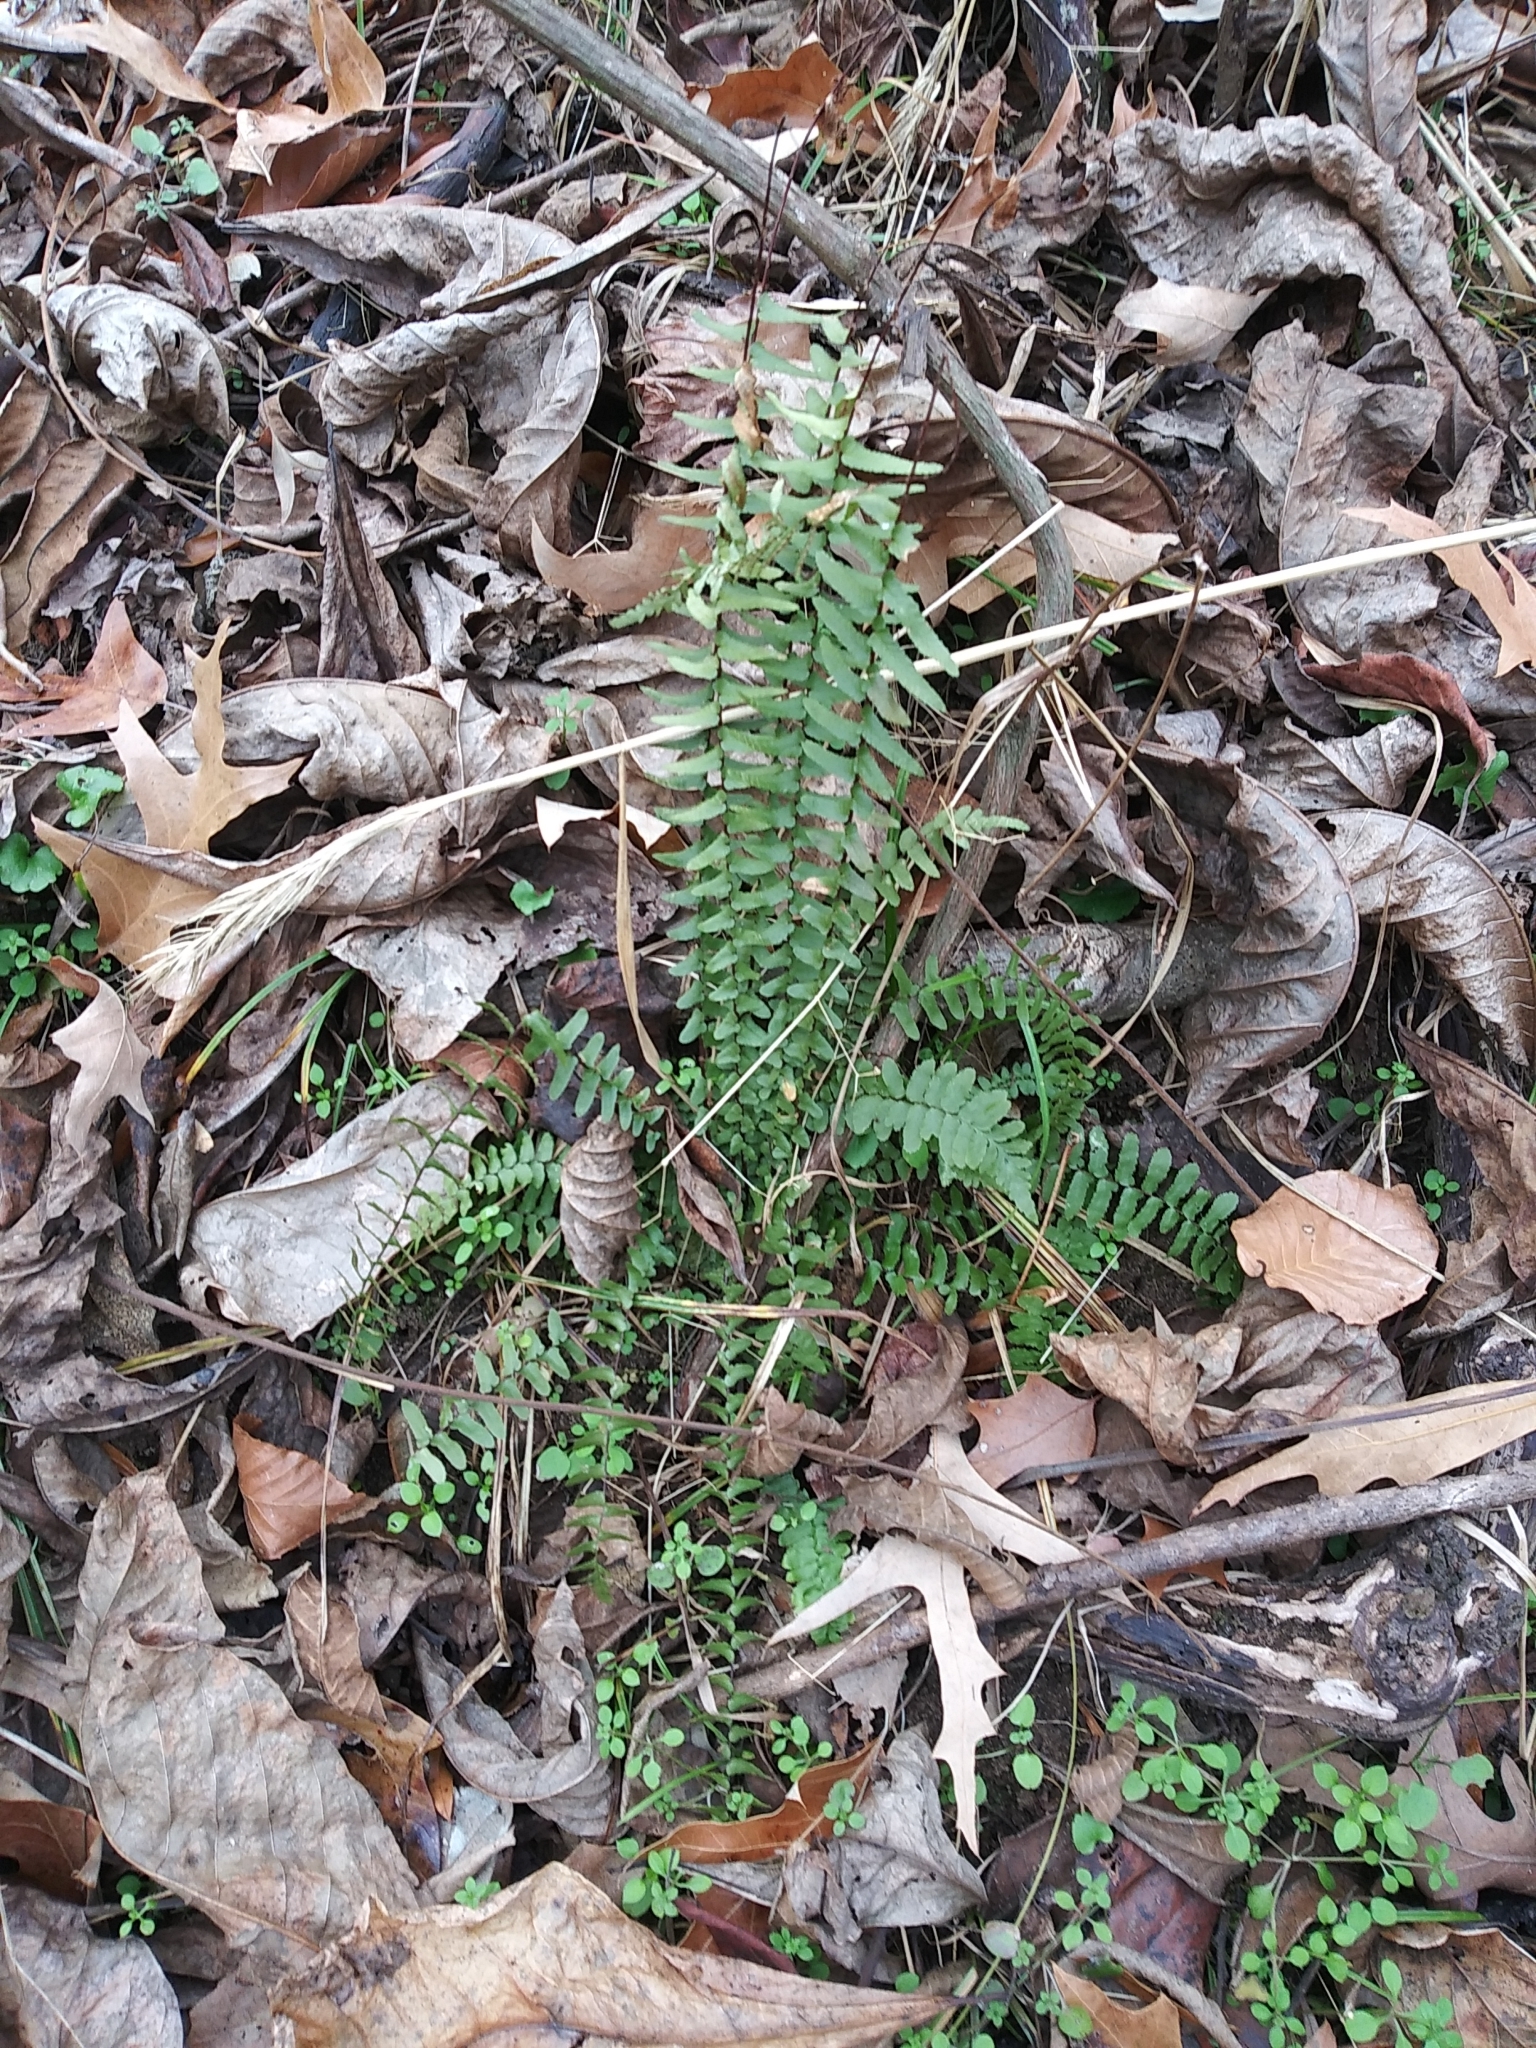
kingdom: Plantae
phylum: Tracheophyta
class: Polypodiopsida
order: Polypodiales
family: Aspleniaceae
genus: Asplenium
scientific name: Asplenium platyneuron
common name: Ebony spleenwort
